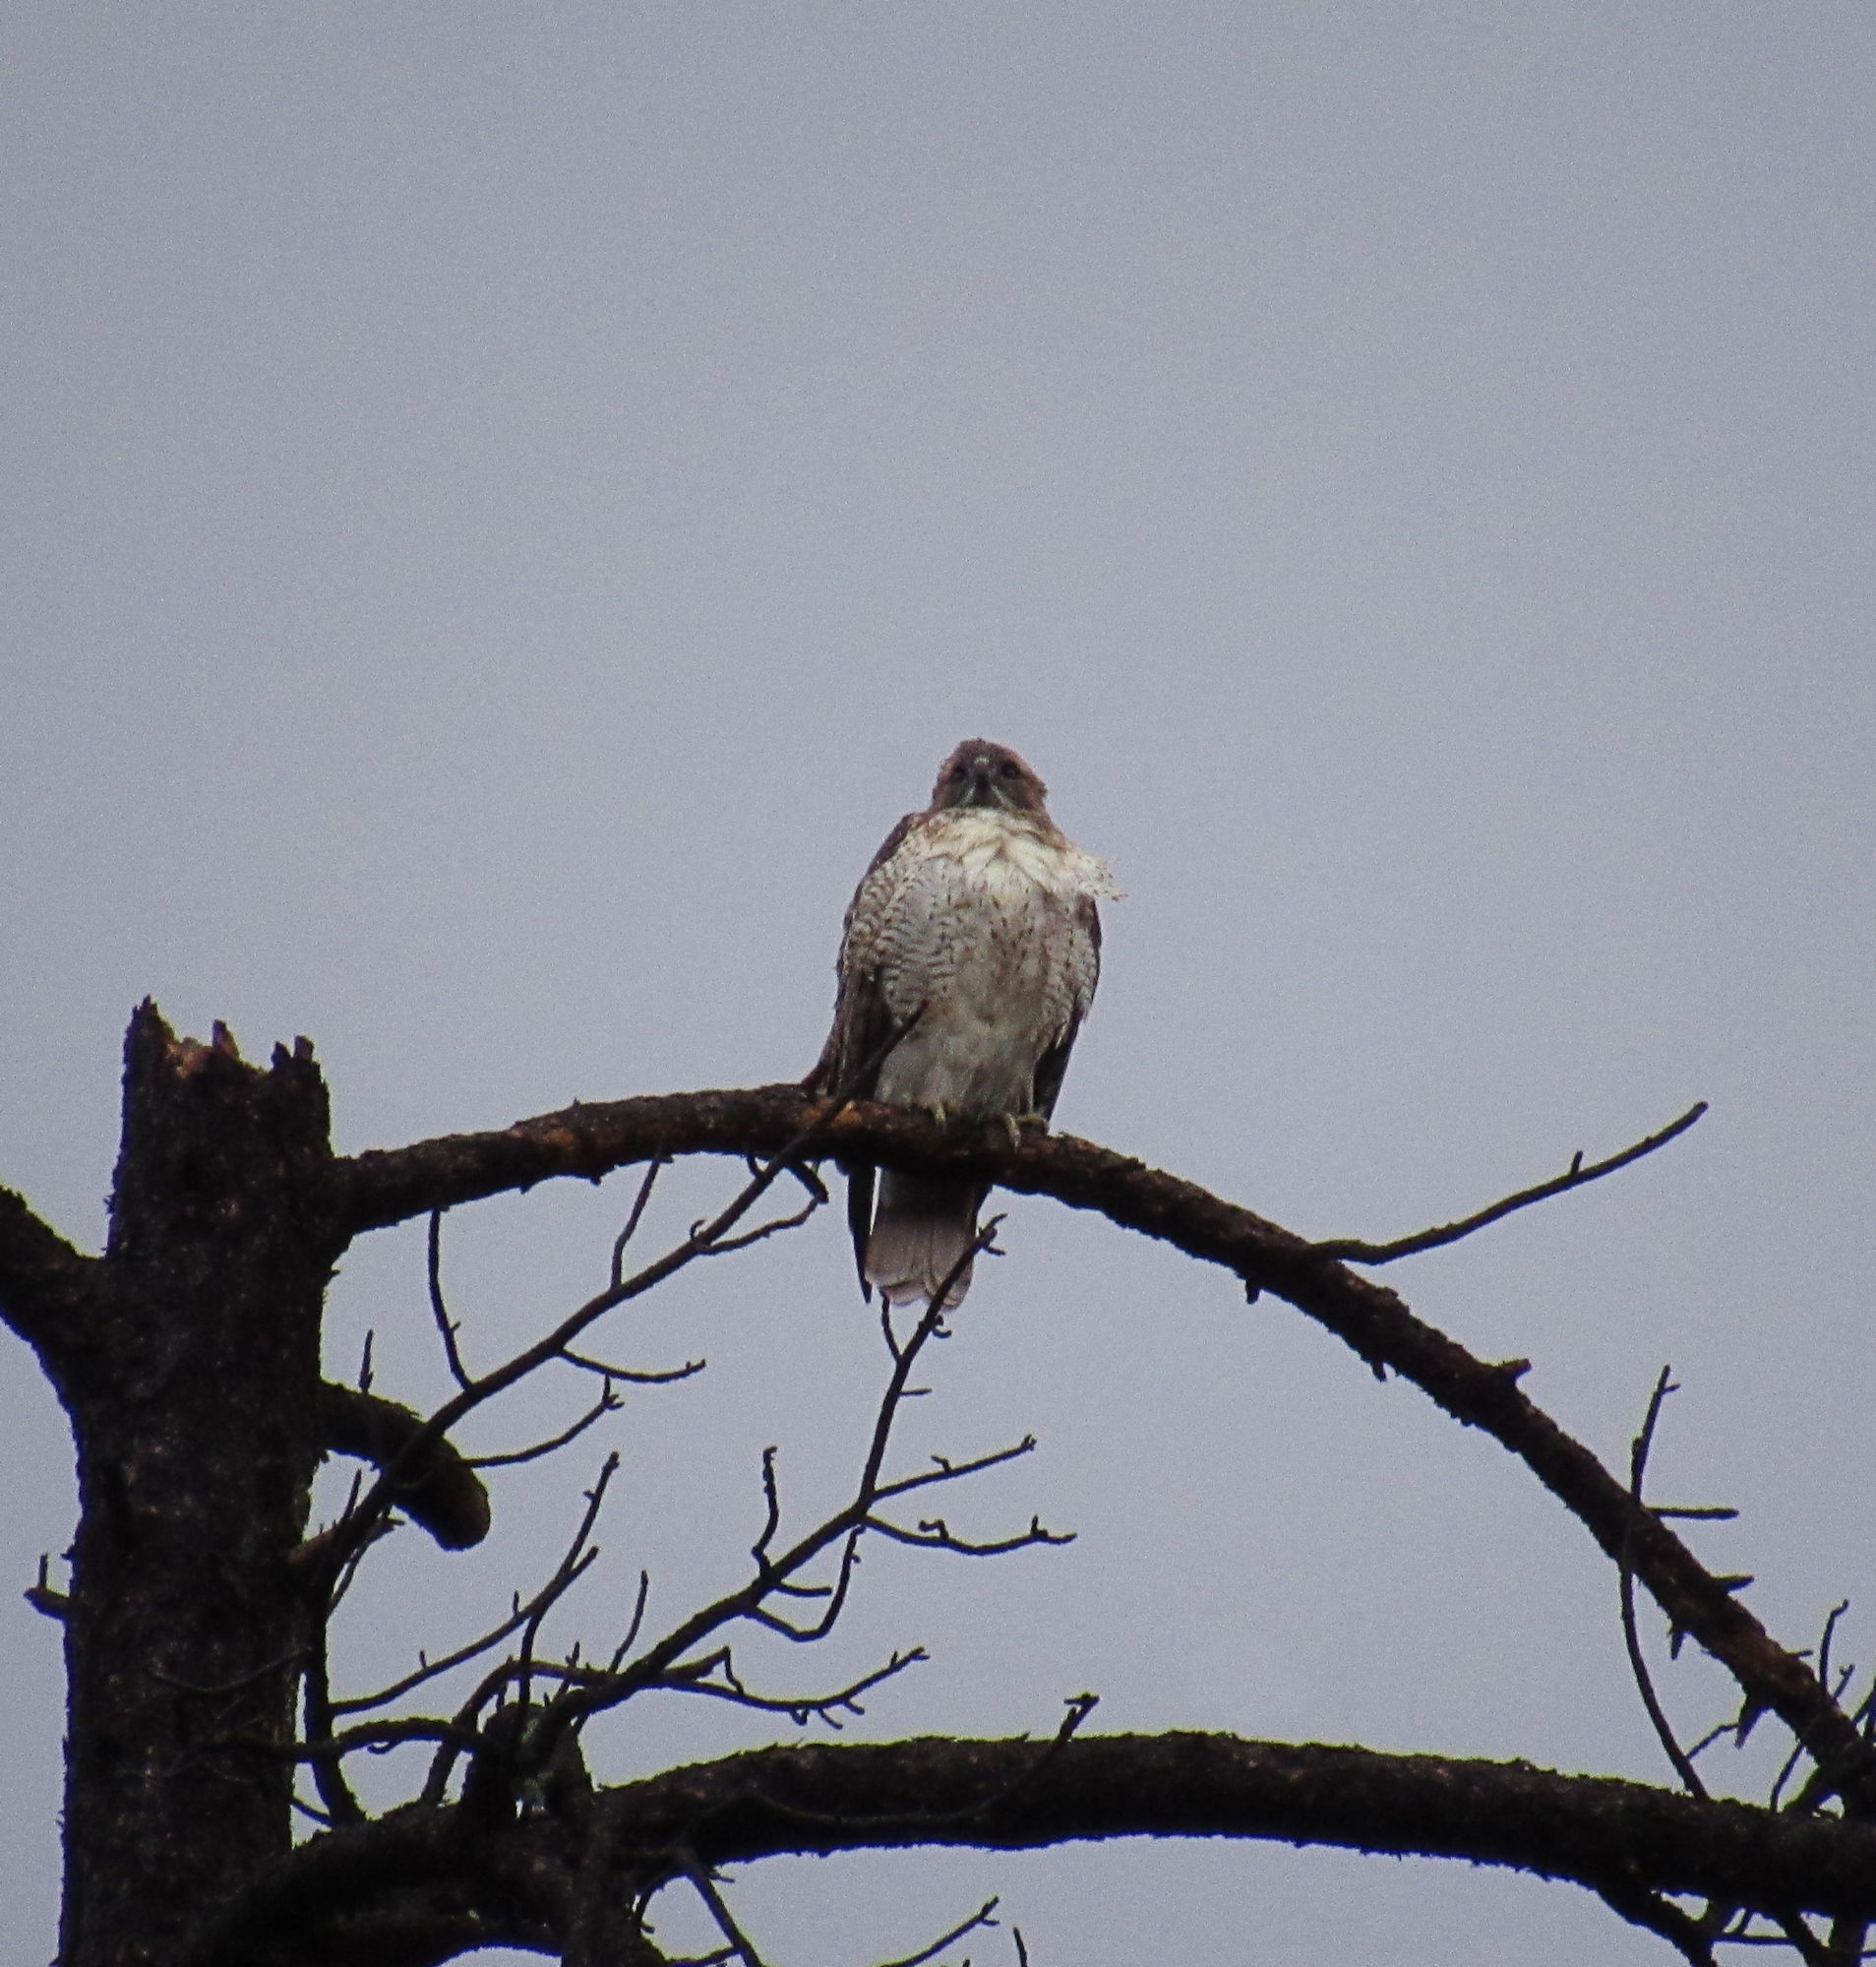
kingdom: Animalia
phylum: Chordata
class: Aves
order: Accipitriformes
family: Accipitridae
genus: Buteo
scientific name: Buteo jamaicensis
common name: Red-tailed hawk
